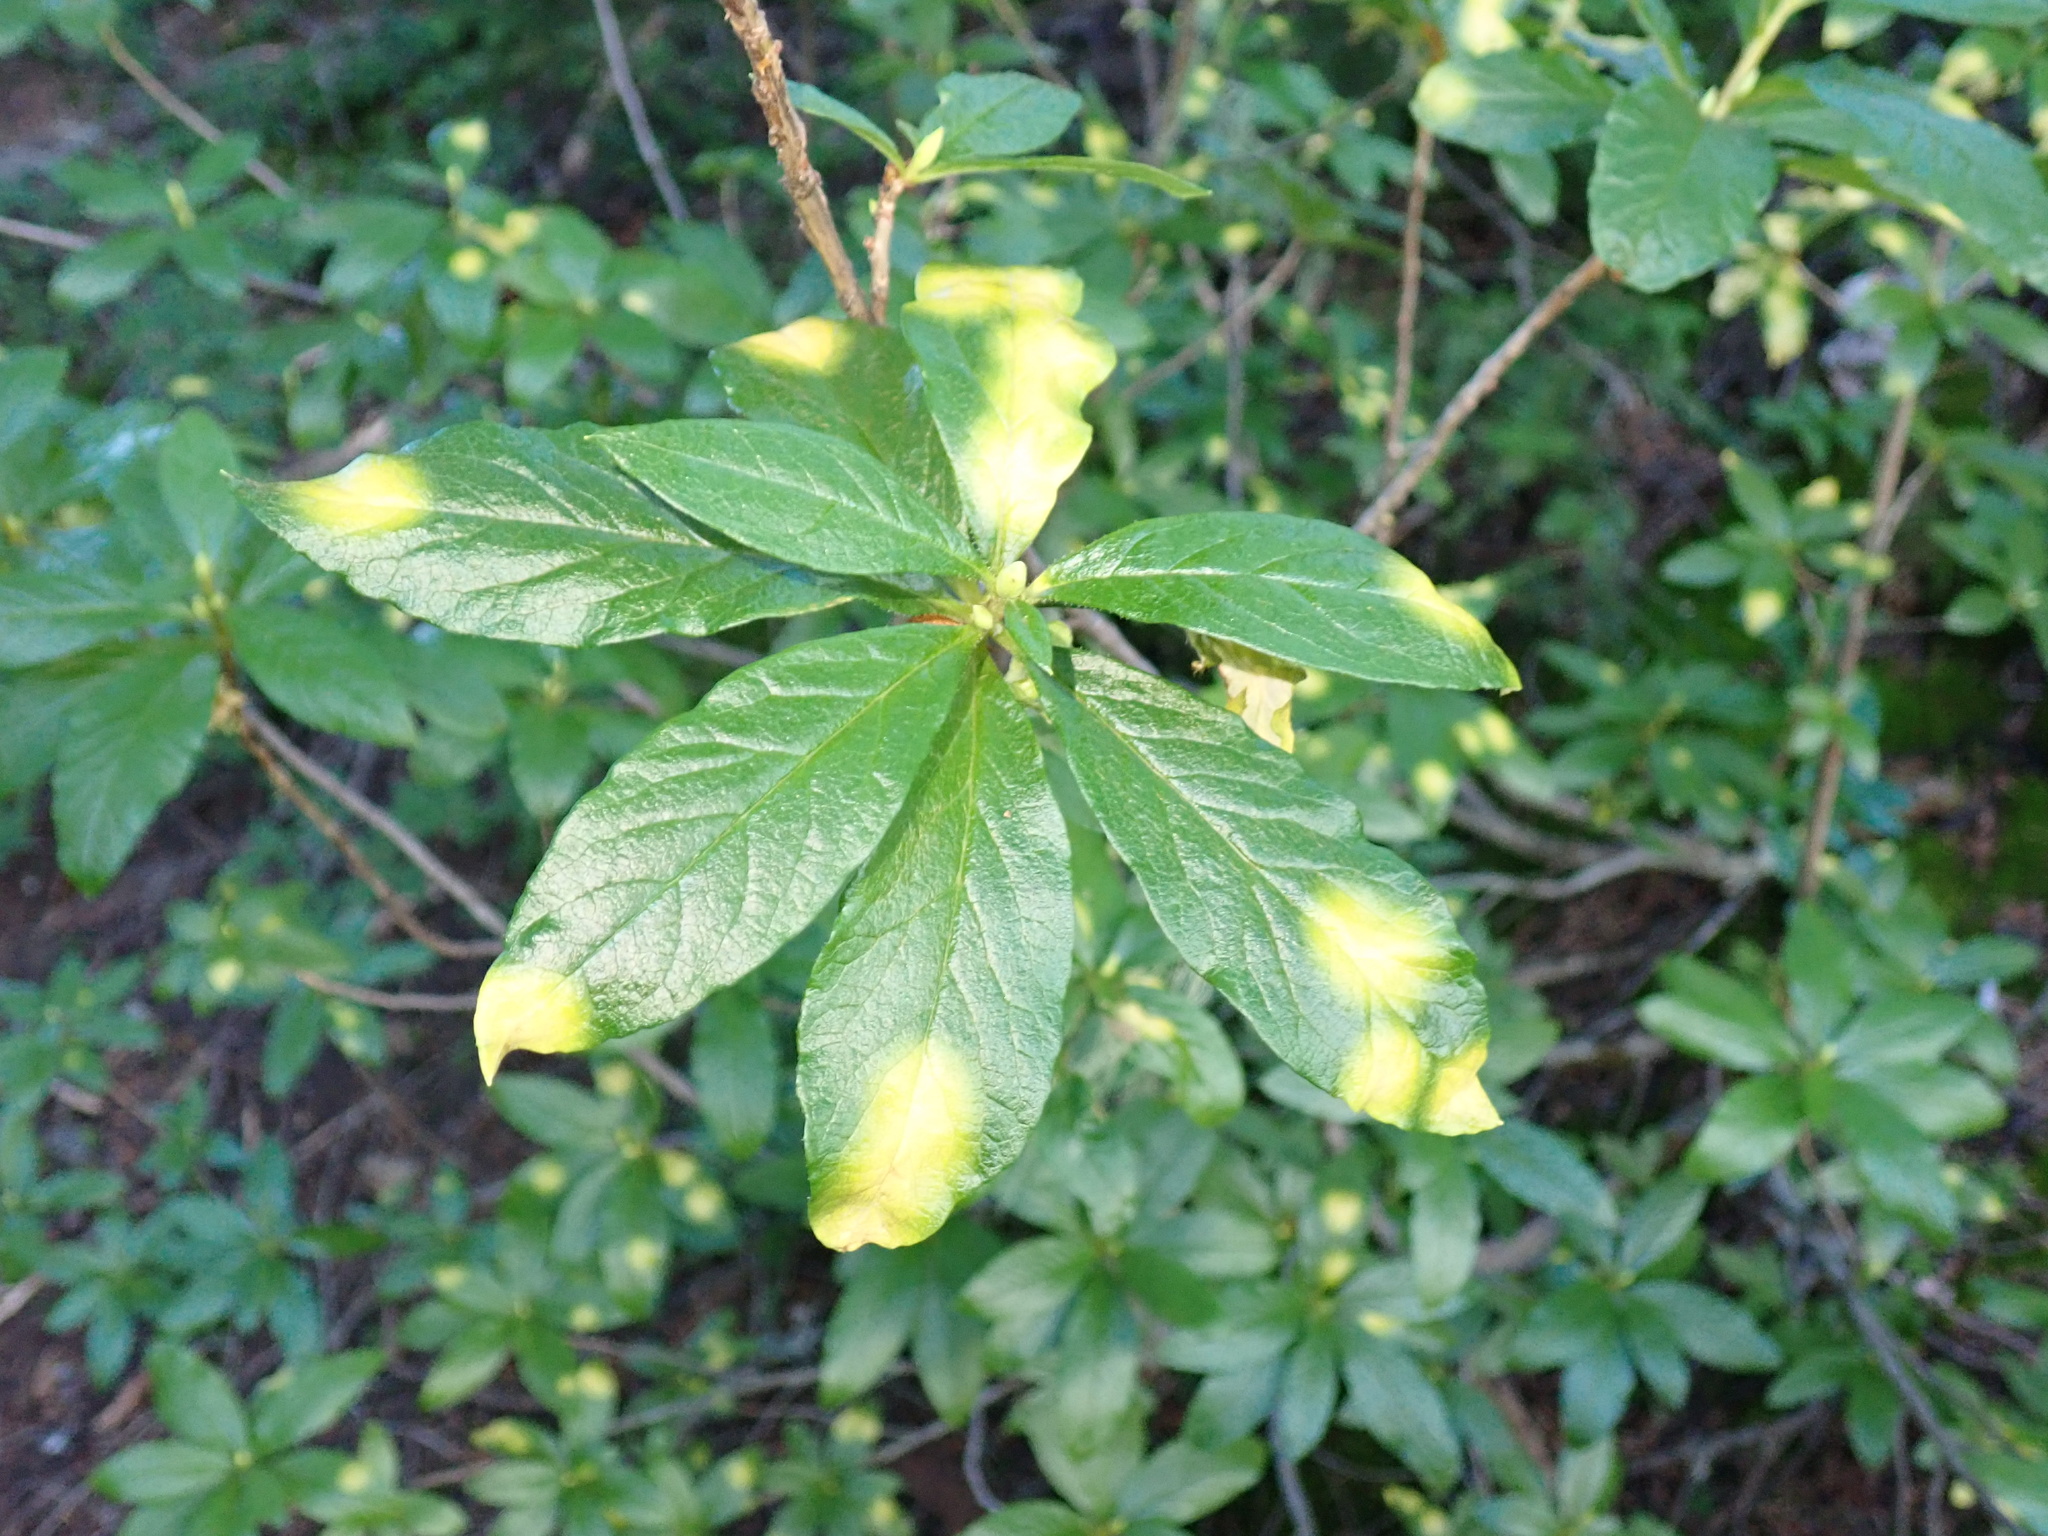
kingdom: Plantae
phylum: Tracheophyta
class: Magnoliopsida
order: Ericales
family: Ericaceae
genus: Rhododendron
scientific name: Rhododendron albiflorum
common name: White rhododendron
